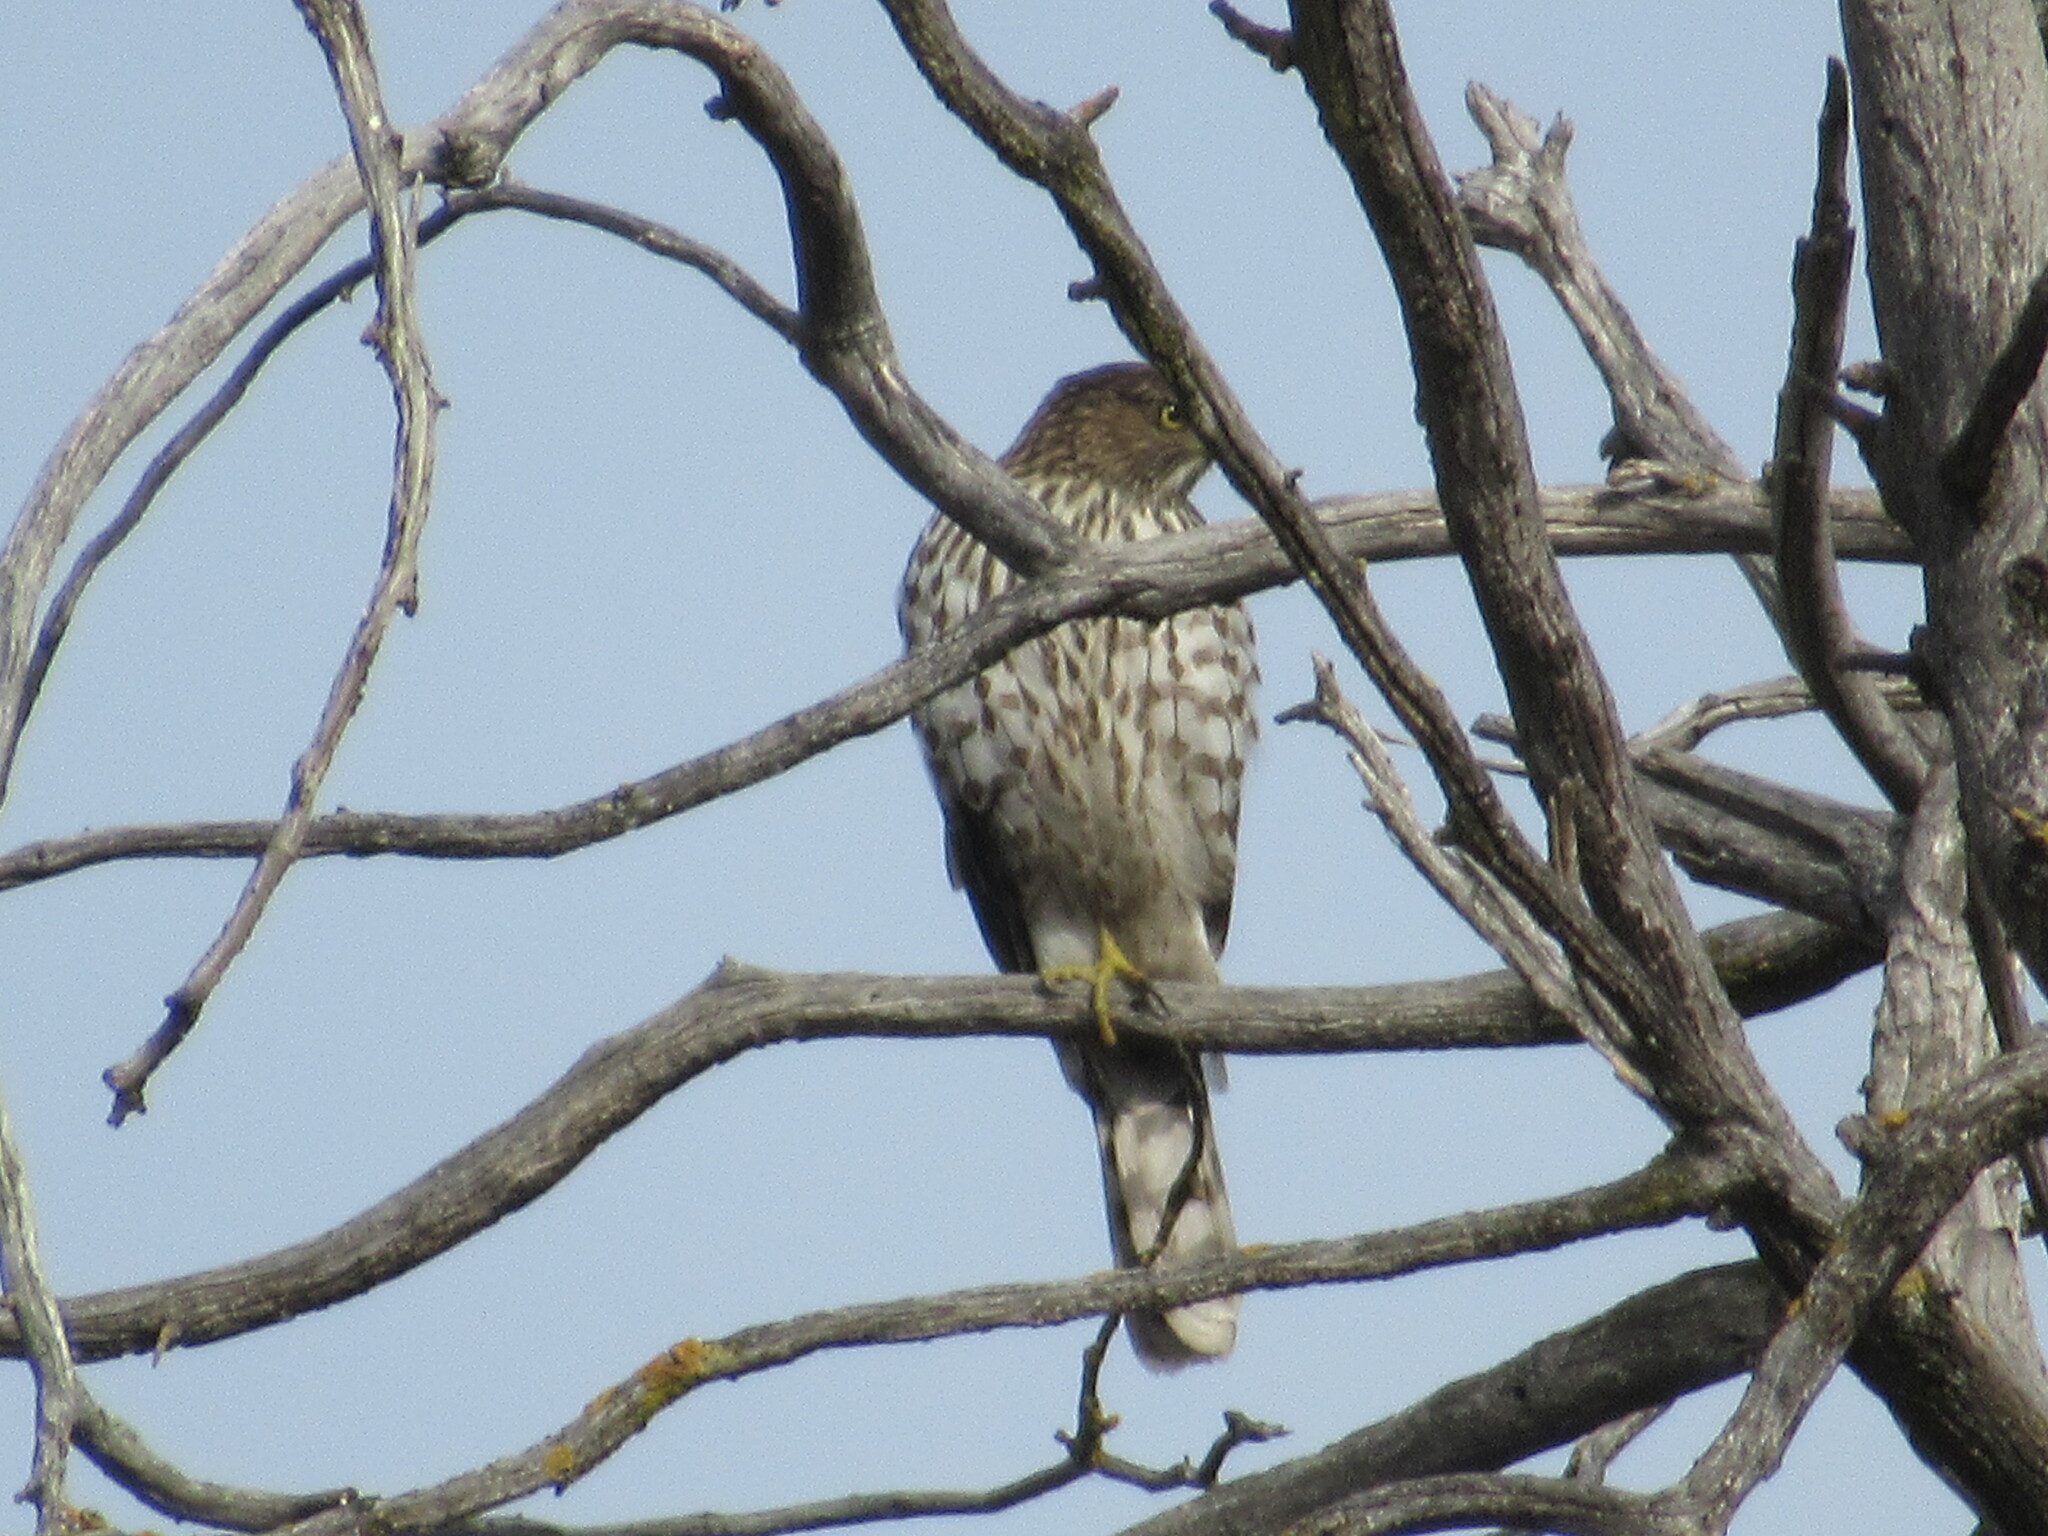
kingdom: Animalia
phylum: Chordata
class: Aves
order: Accipitriformes
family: Accipitridae
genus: Accipiter
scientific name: Accipiter cooperii
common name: Cooper's hawk
